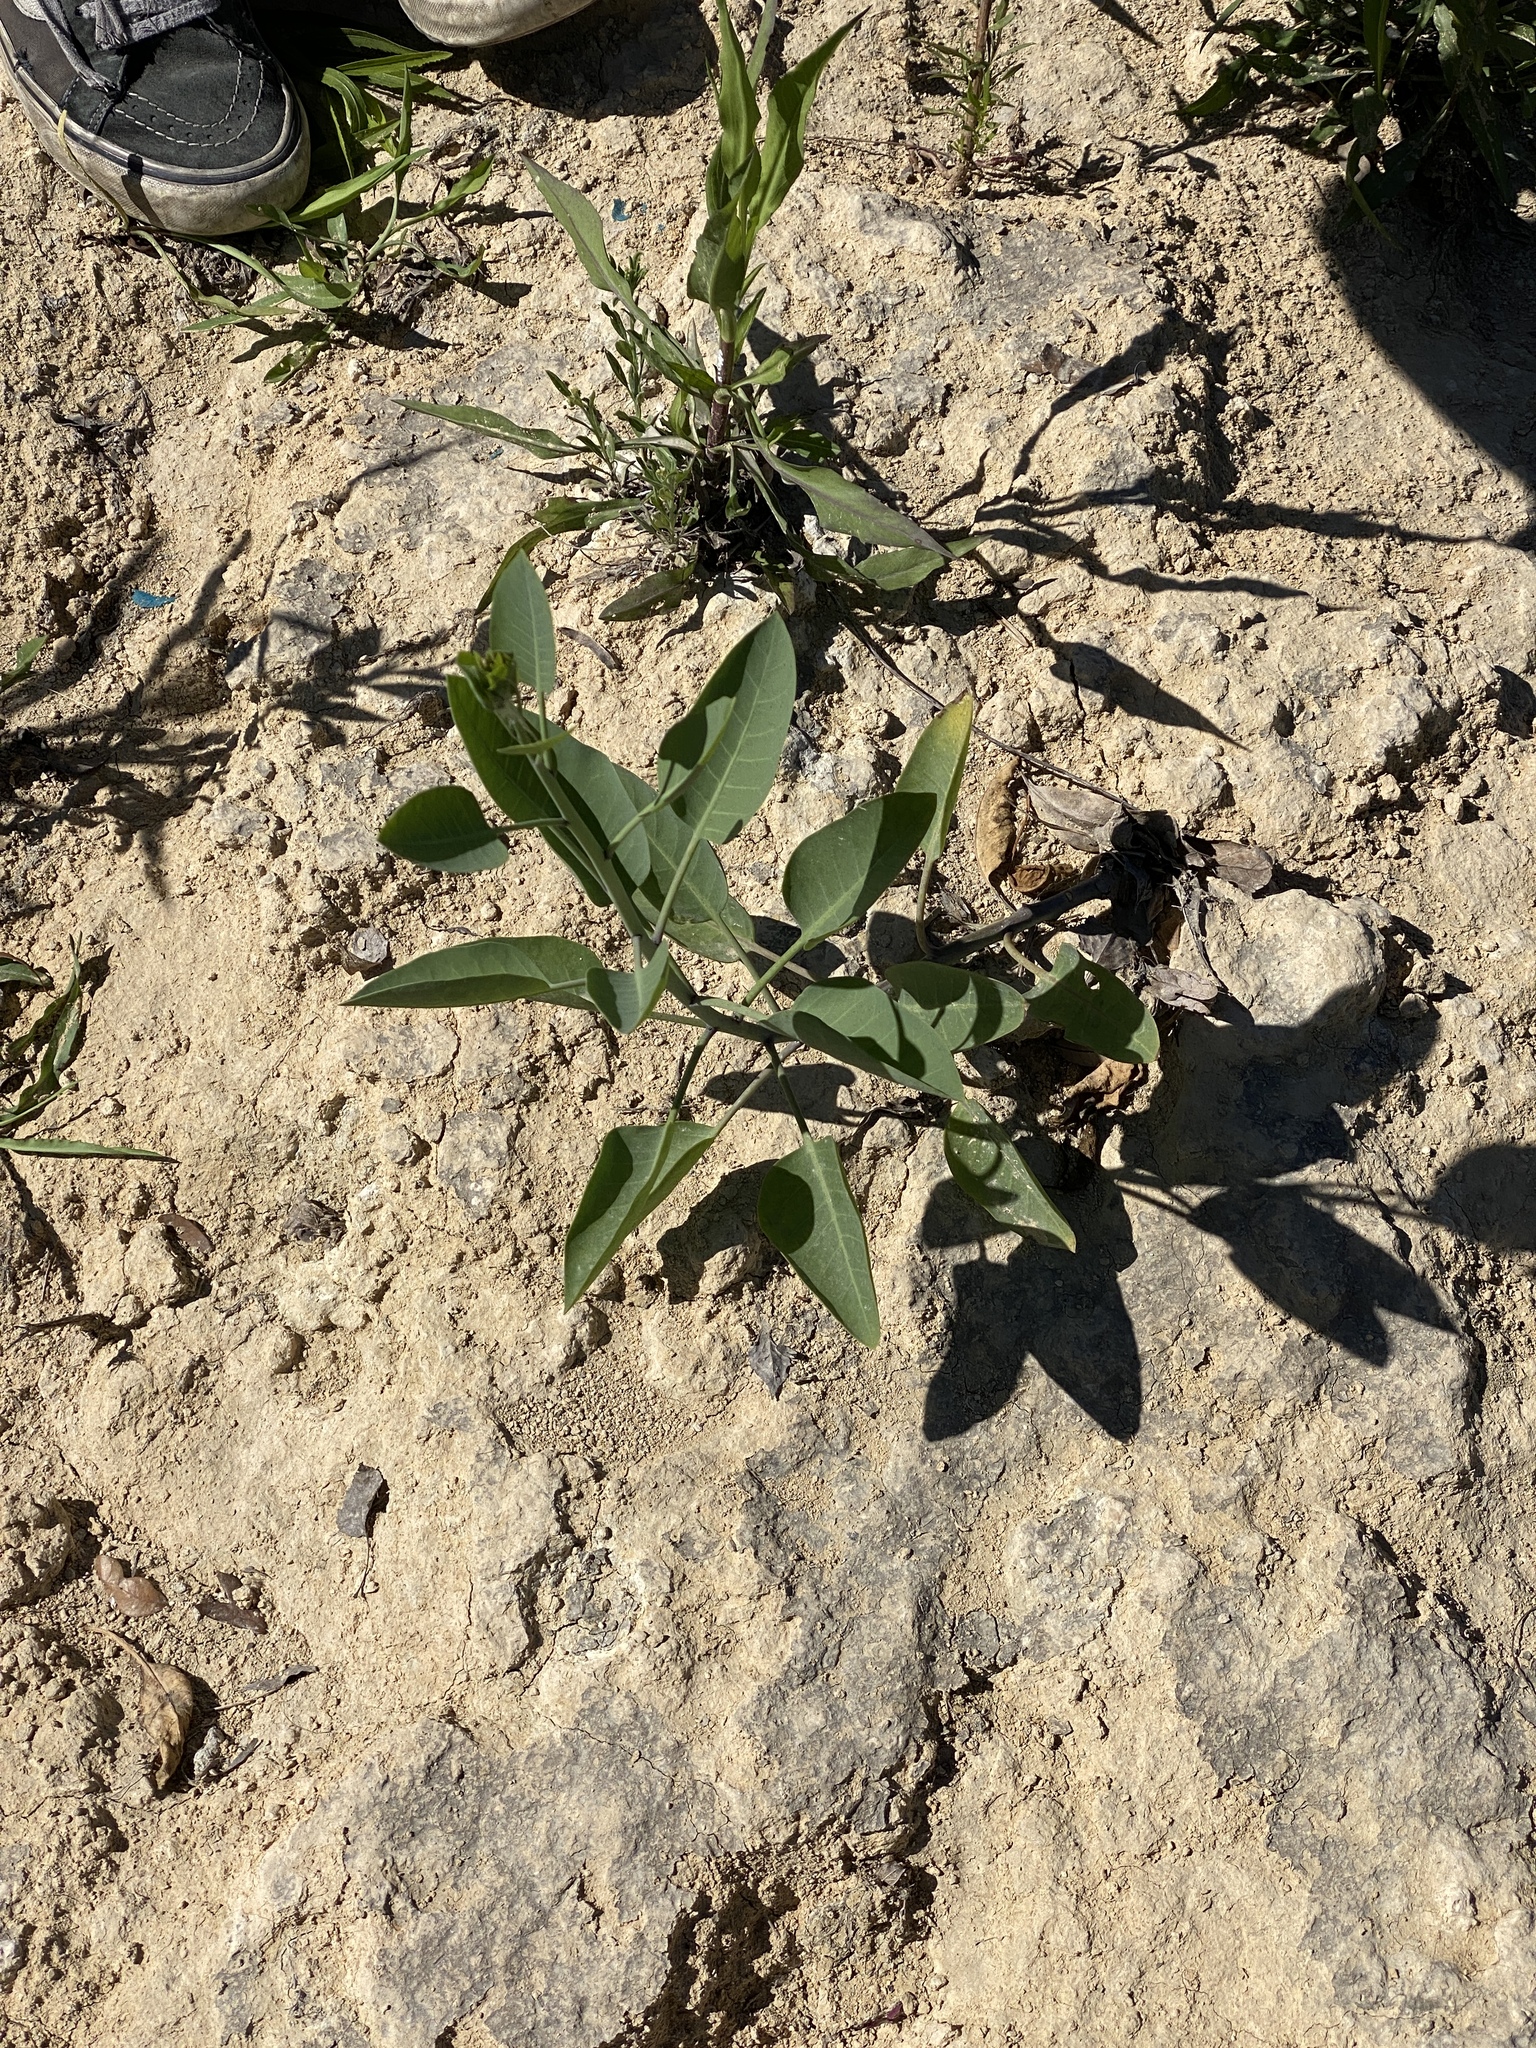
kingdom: Plantae
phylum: Tracheophyta
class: Magnoliopsida
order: Solanales
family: Solanaceae
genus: Nicotiana
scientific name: Nicotiana glauca
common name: Tree tobacco
